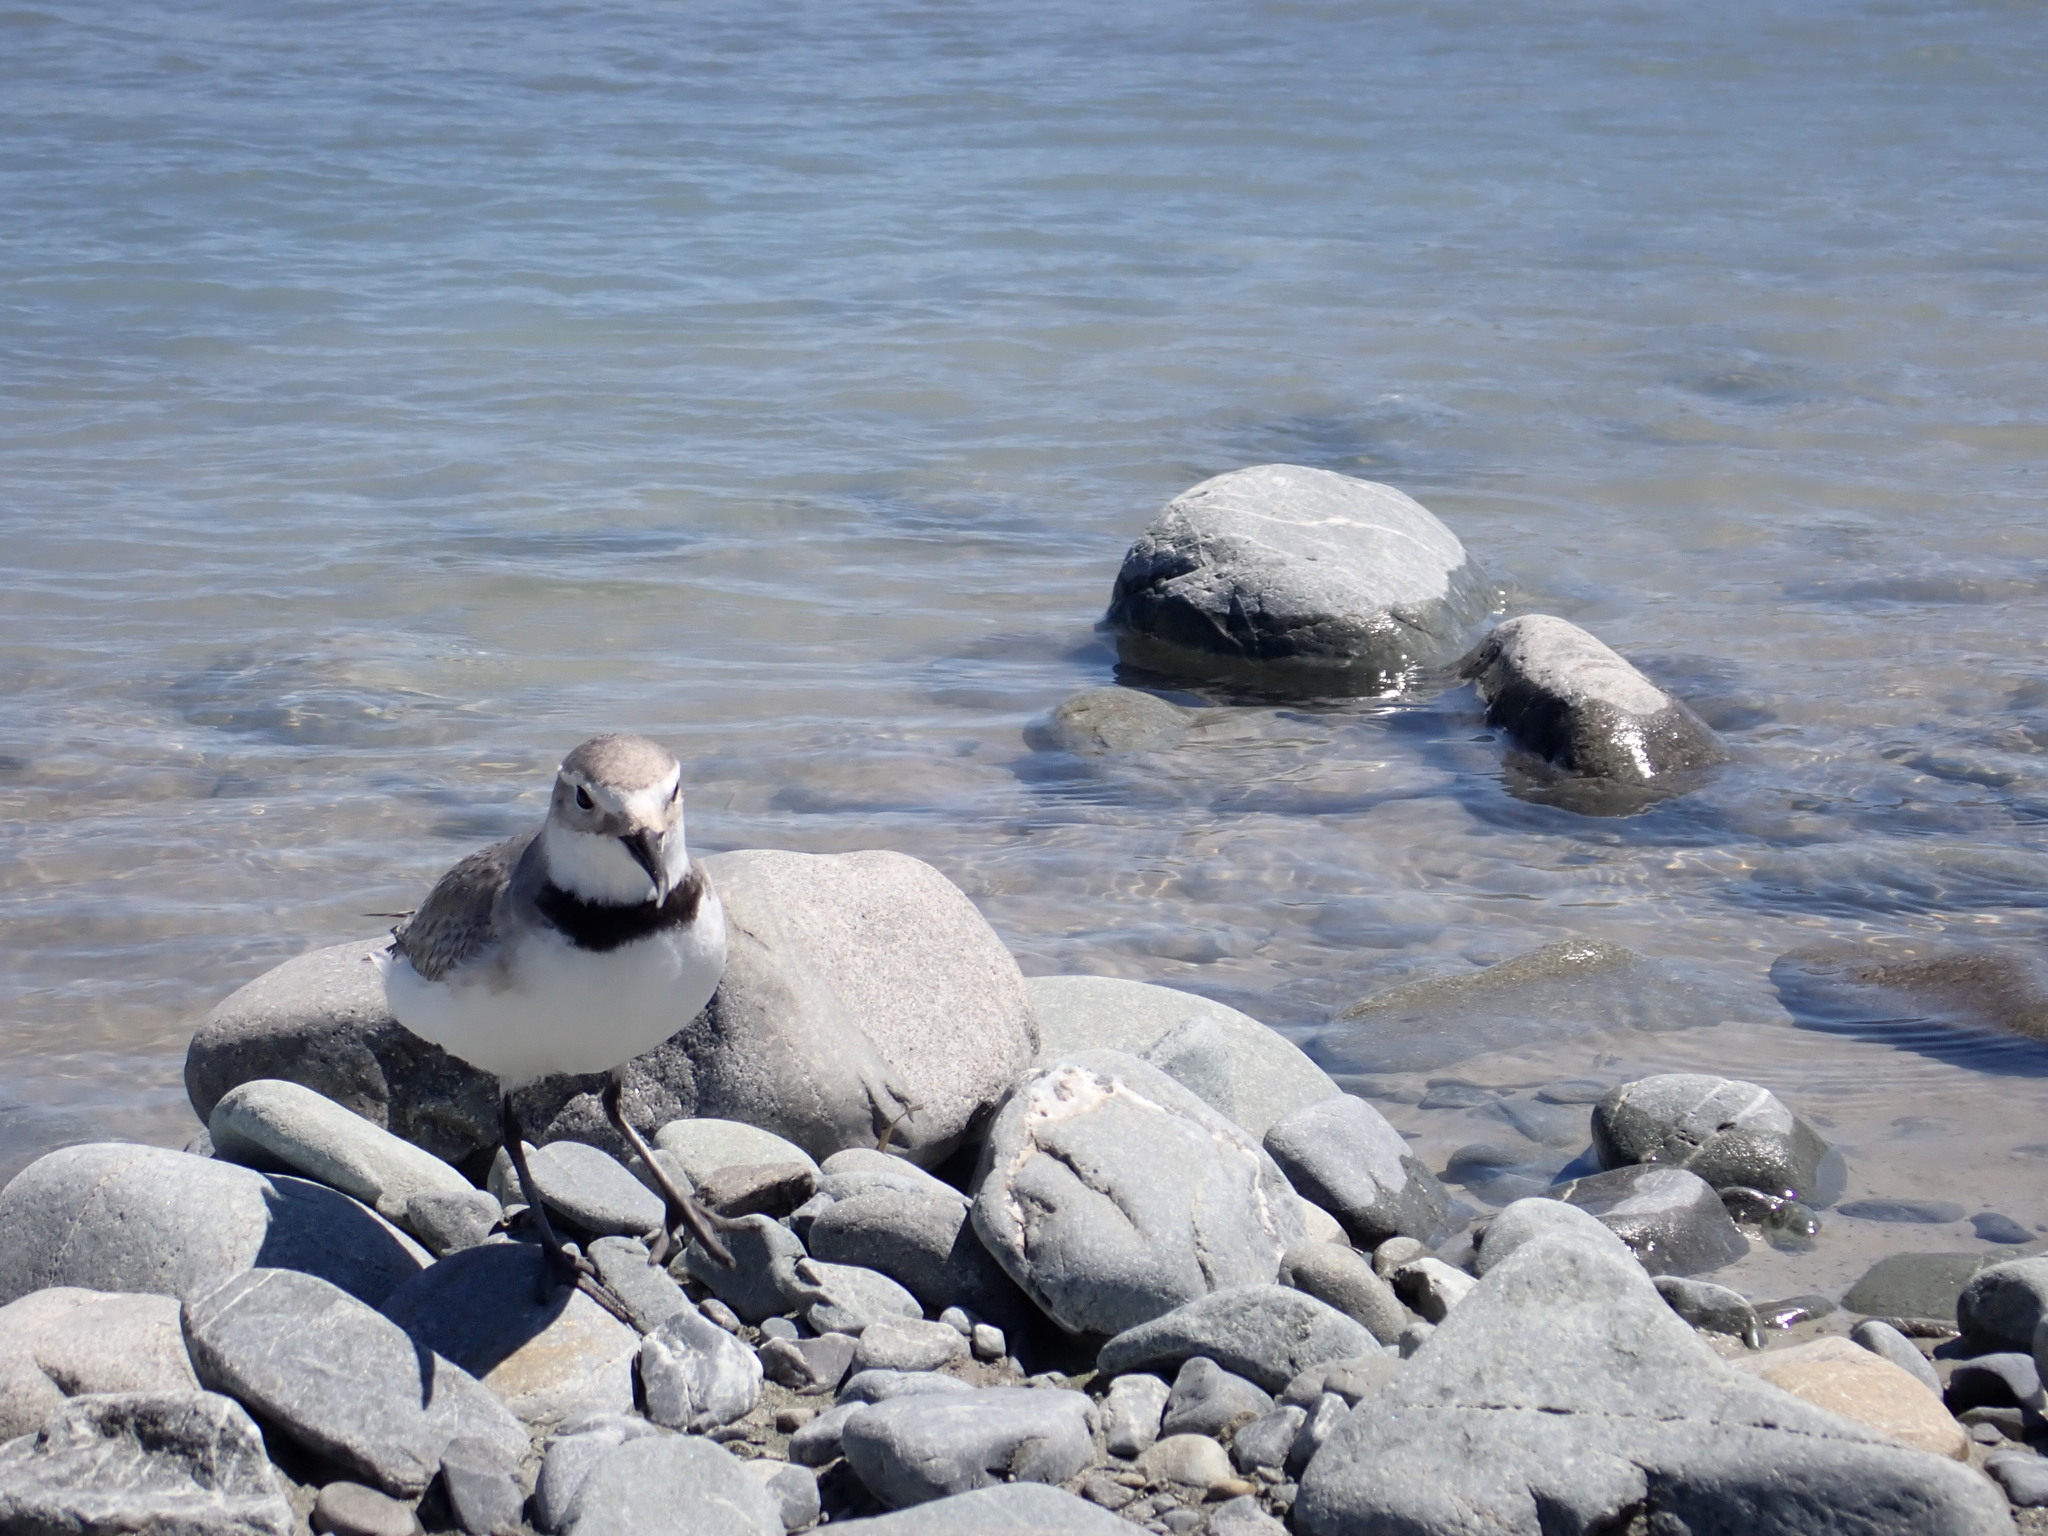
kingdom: Animalia
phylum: Chordata
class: Aves
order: Charadriiformes
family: Charadriidae
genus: Anarhynchus
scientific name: Anarhynchus frontalis
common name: Wrybill
